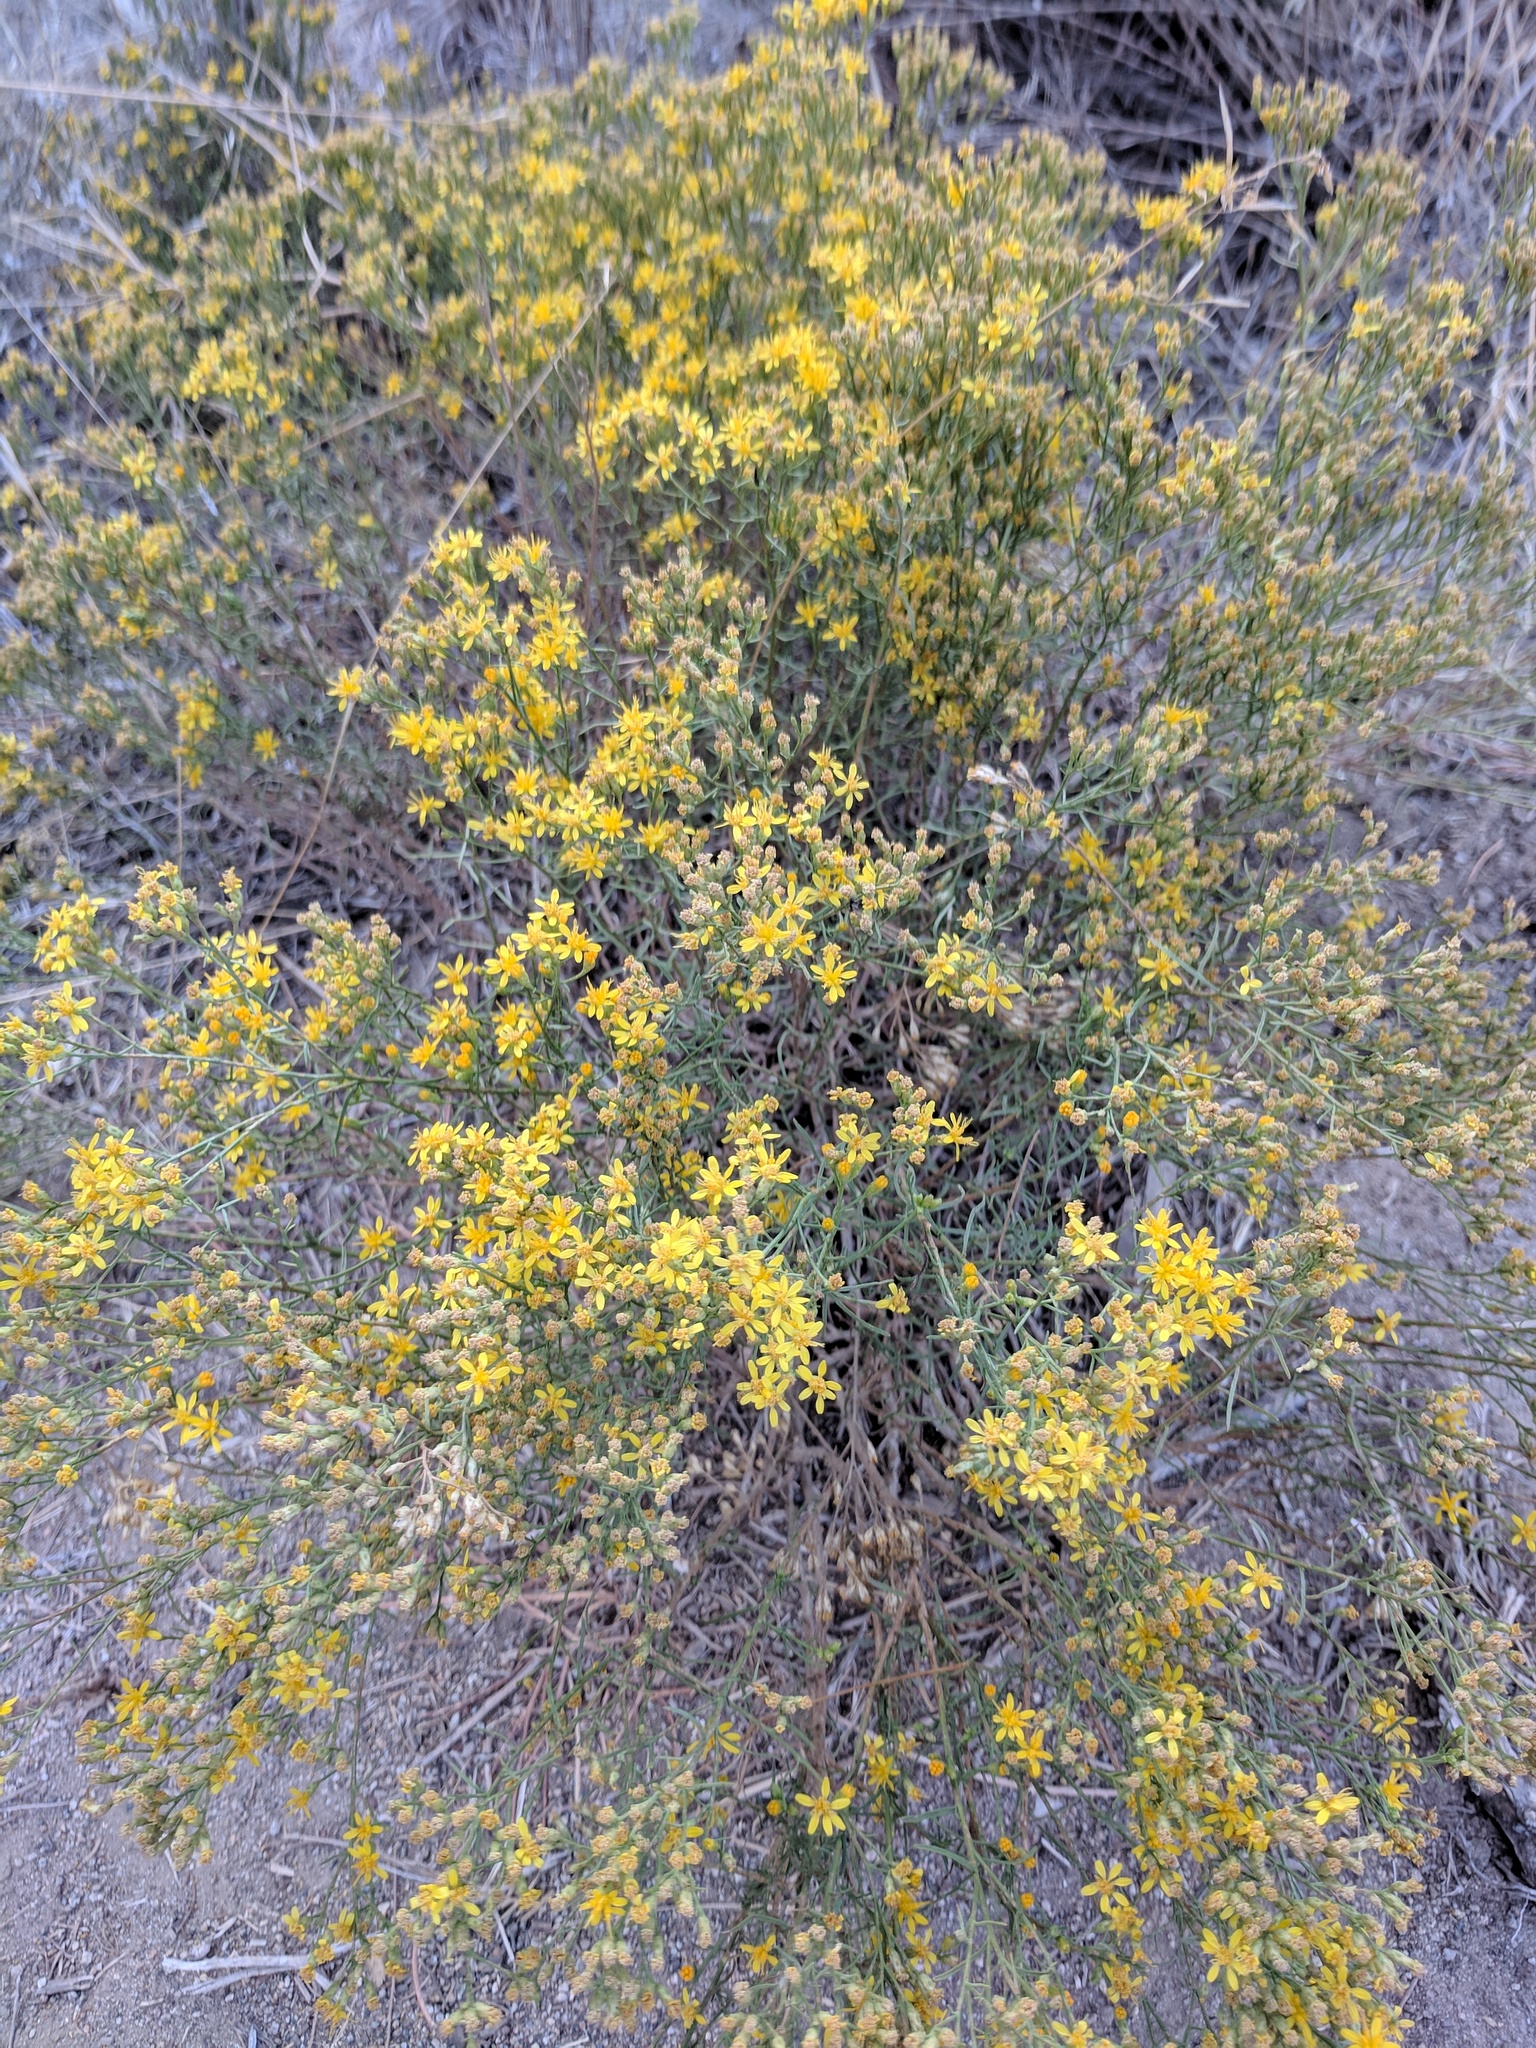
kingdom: Plantae
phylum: Tracheophyta
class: Magnoliopsida
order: Asterales
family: Asteraceae
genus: Gutierrezia
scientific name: Gutierrezia sarothrae
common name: Broom snakeweed
